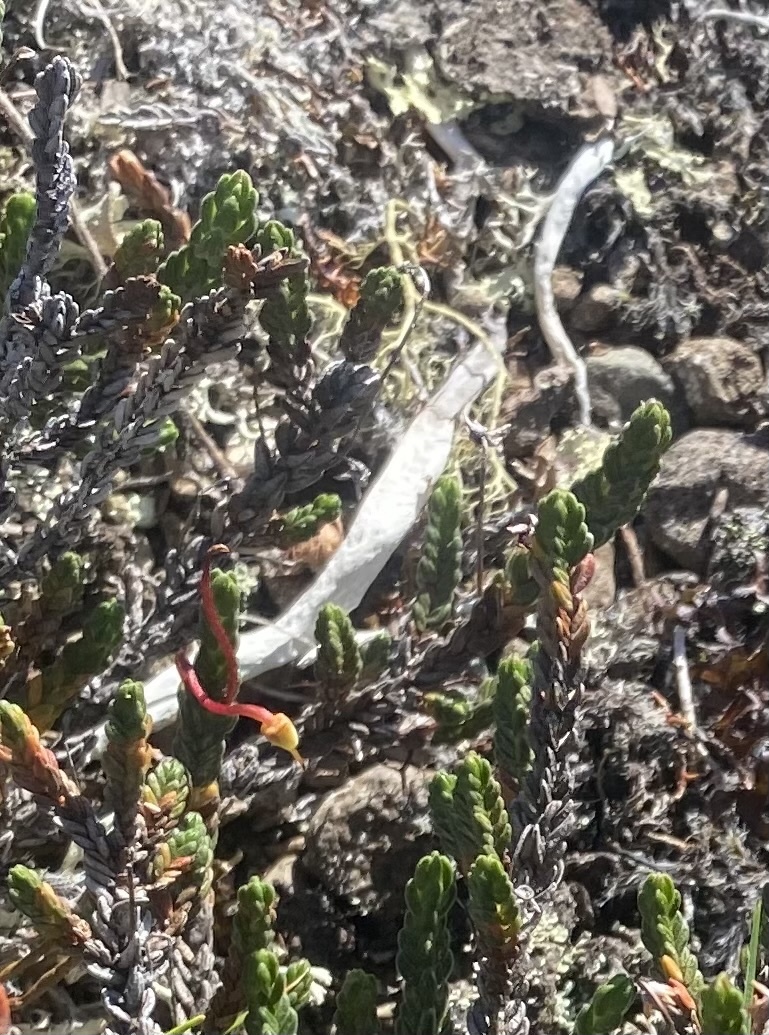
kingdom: Fungi
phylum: Ascomycota
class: Lecanoromycetes
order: Pertusariales
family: Icmadophilaceae
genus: Thamnolia
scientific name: Thamnolia vermicularis
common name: Whiteworm lichen
